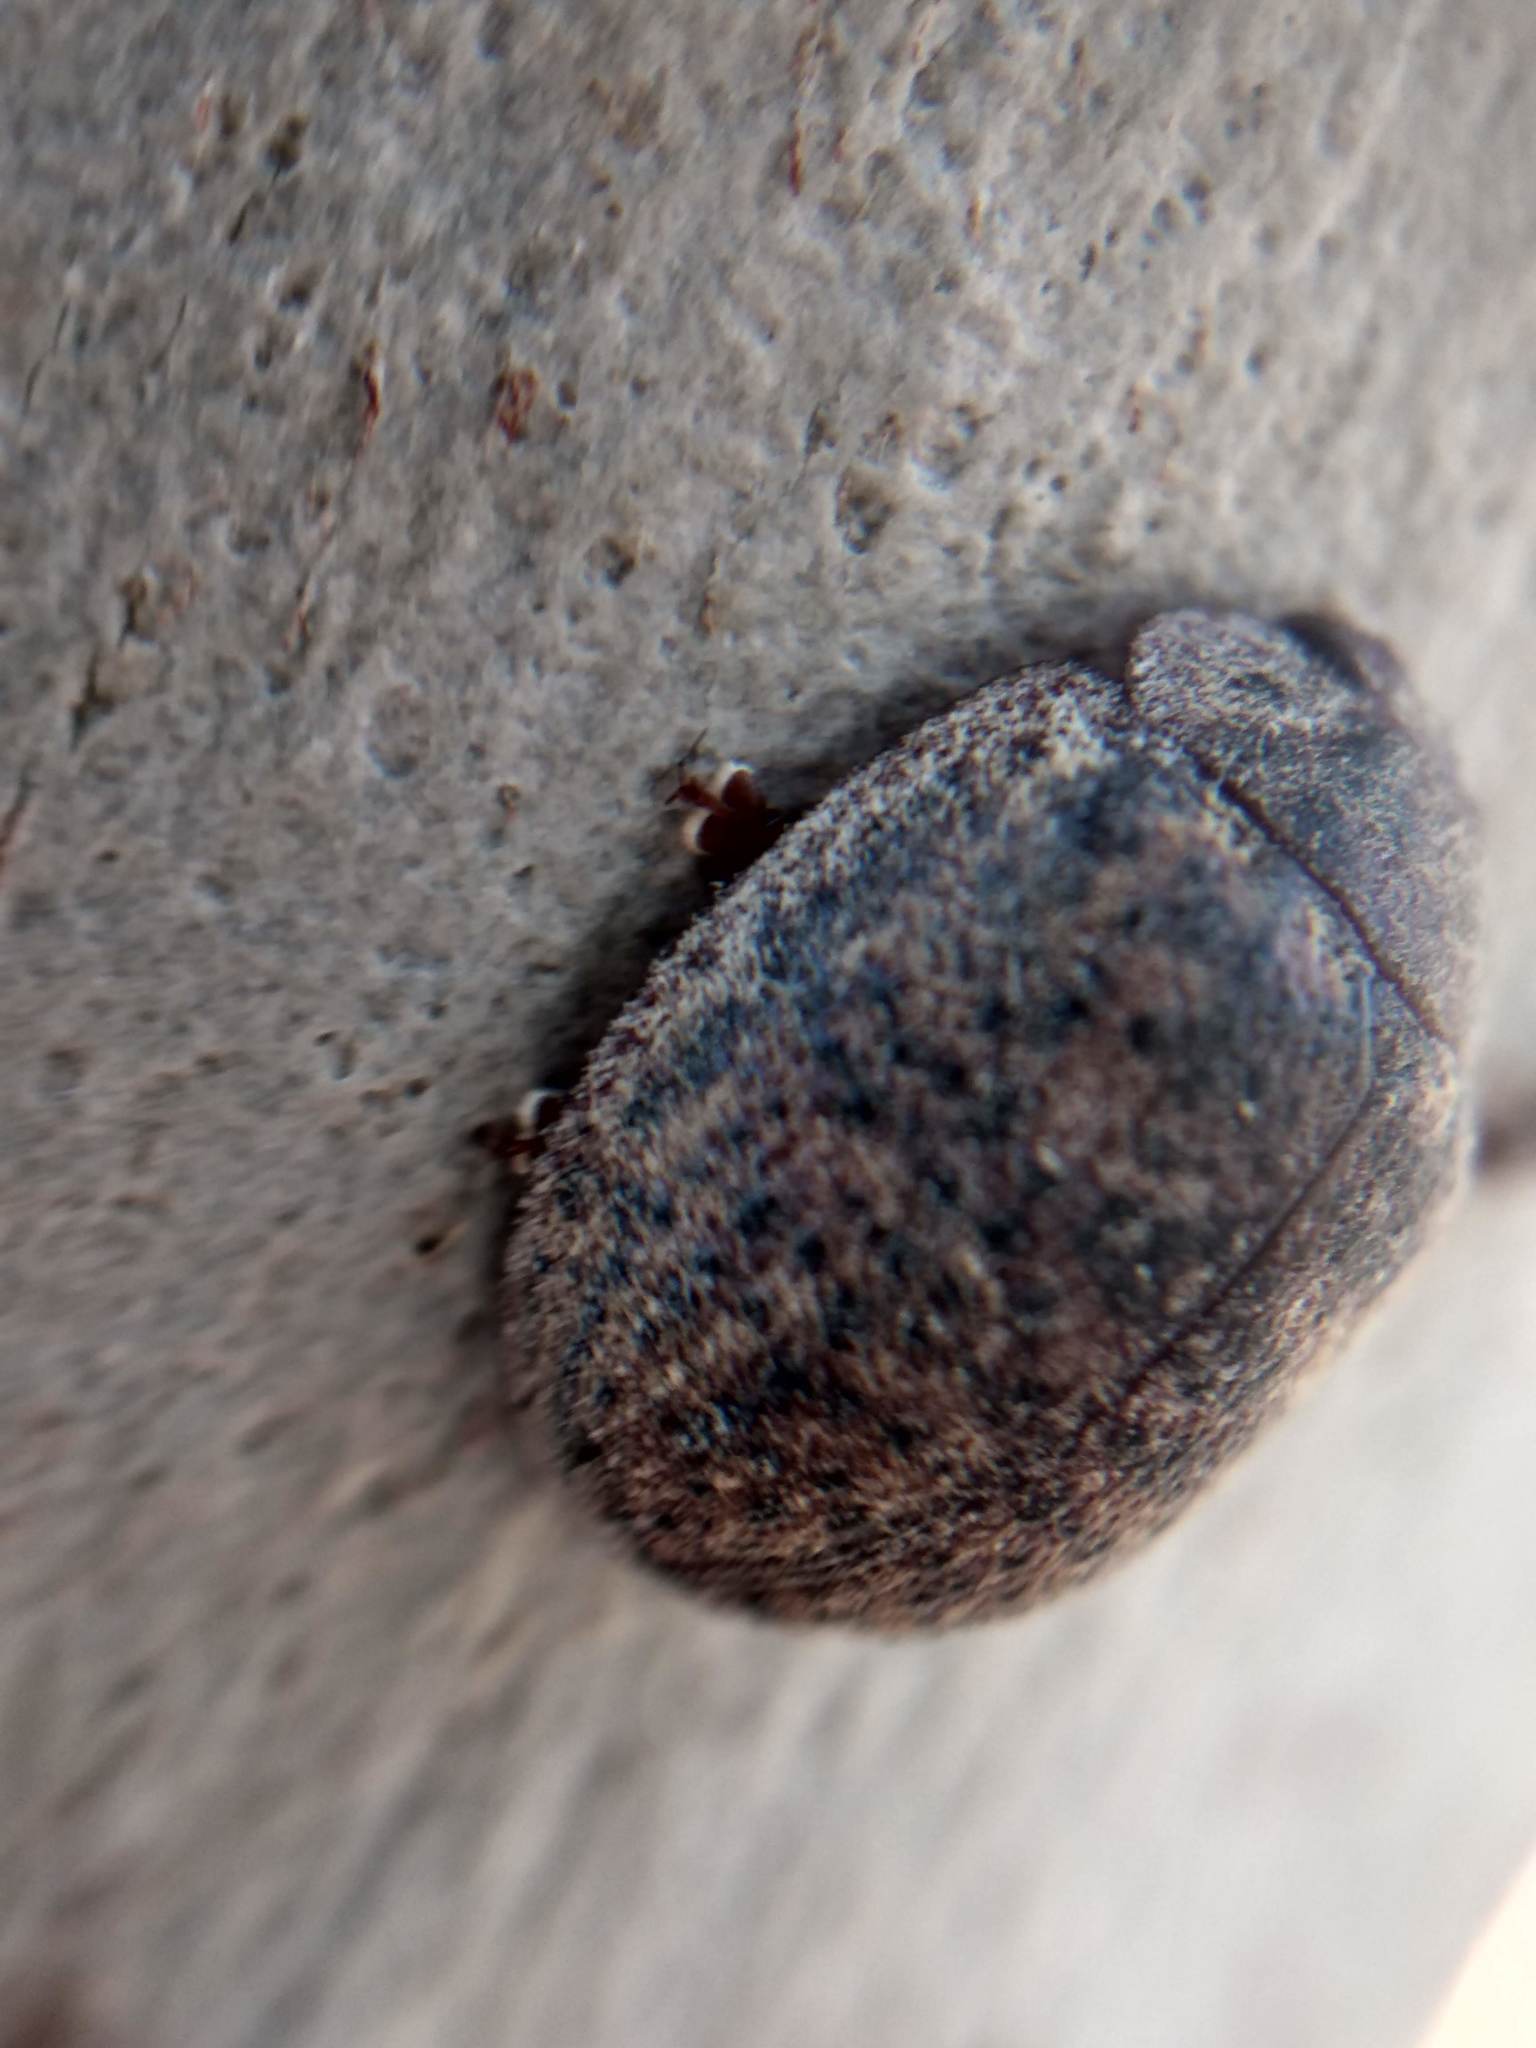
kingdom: Animalia
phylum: Arthropoda
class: Insecta
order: Coleoptera
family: Chrysomelidae
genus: Trachymela
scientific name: Trachymela sloanei
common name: Australian tortoise beetle
